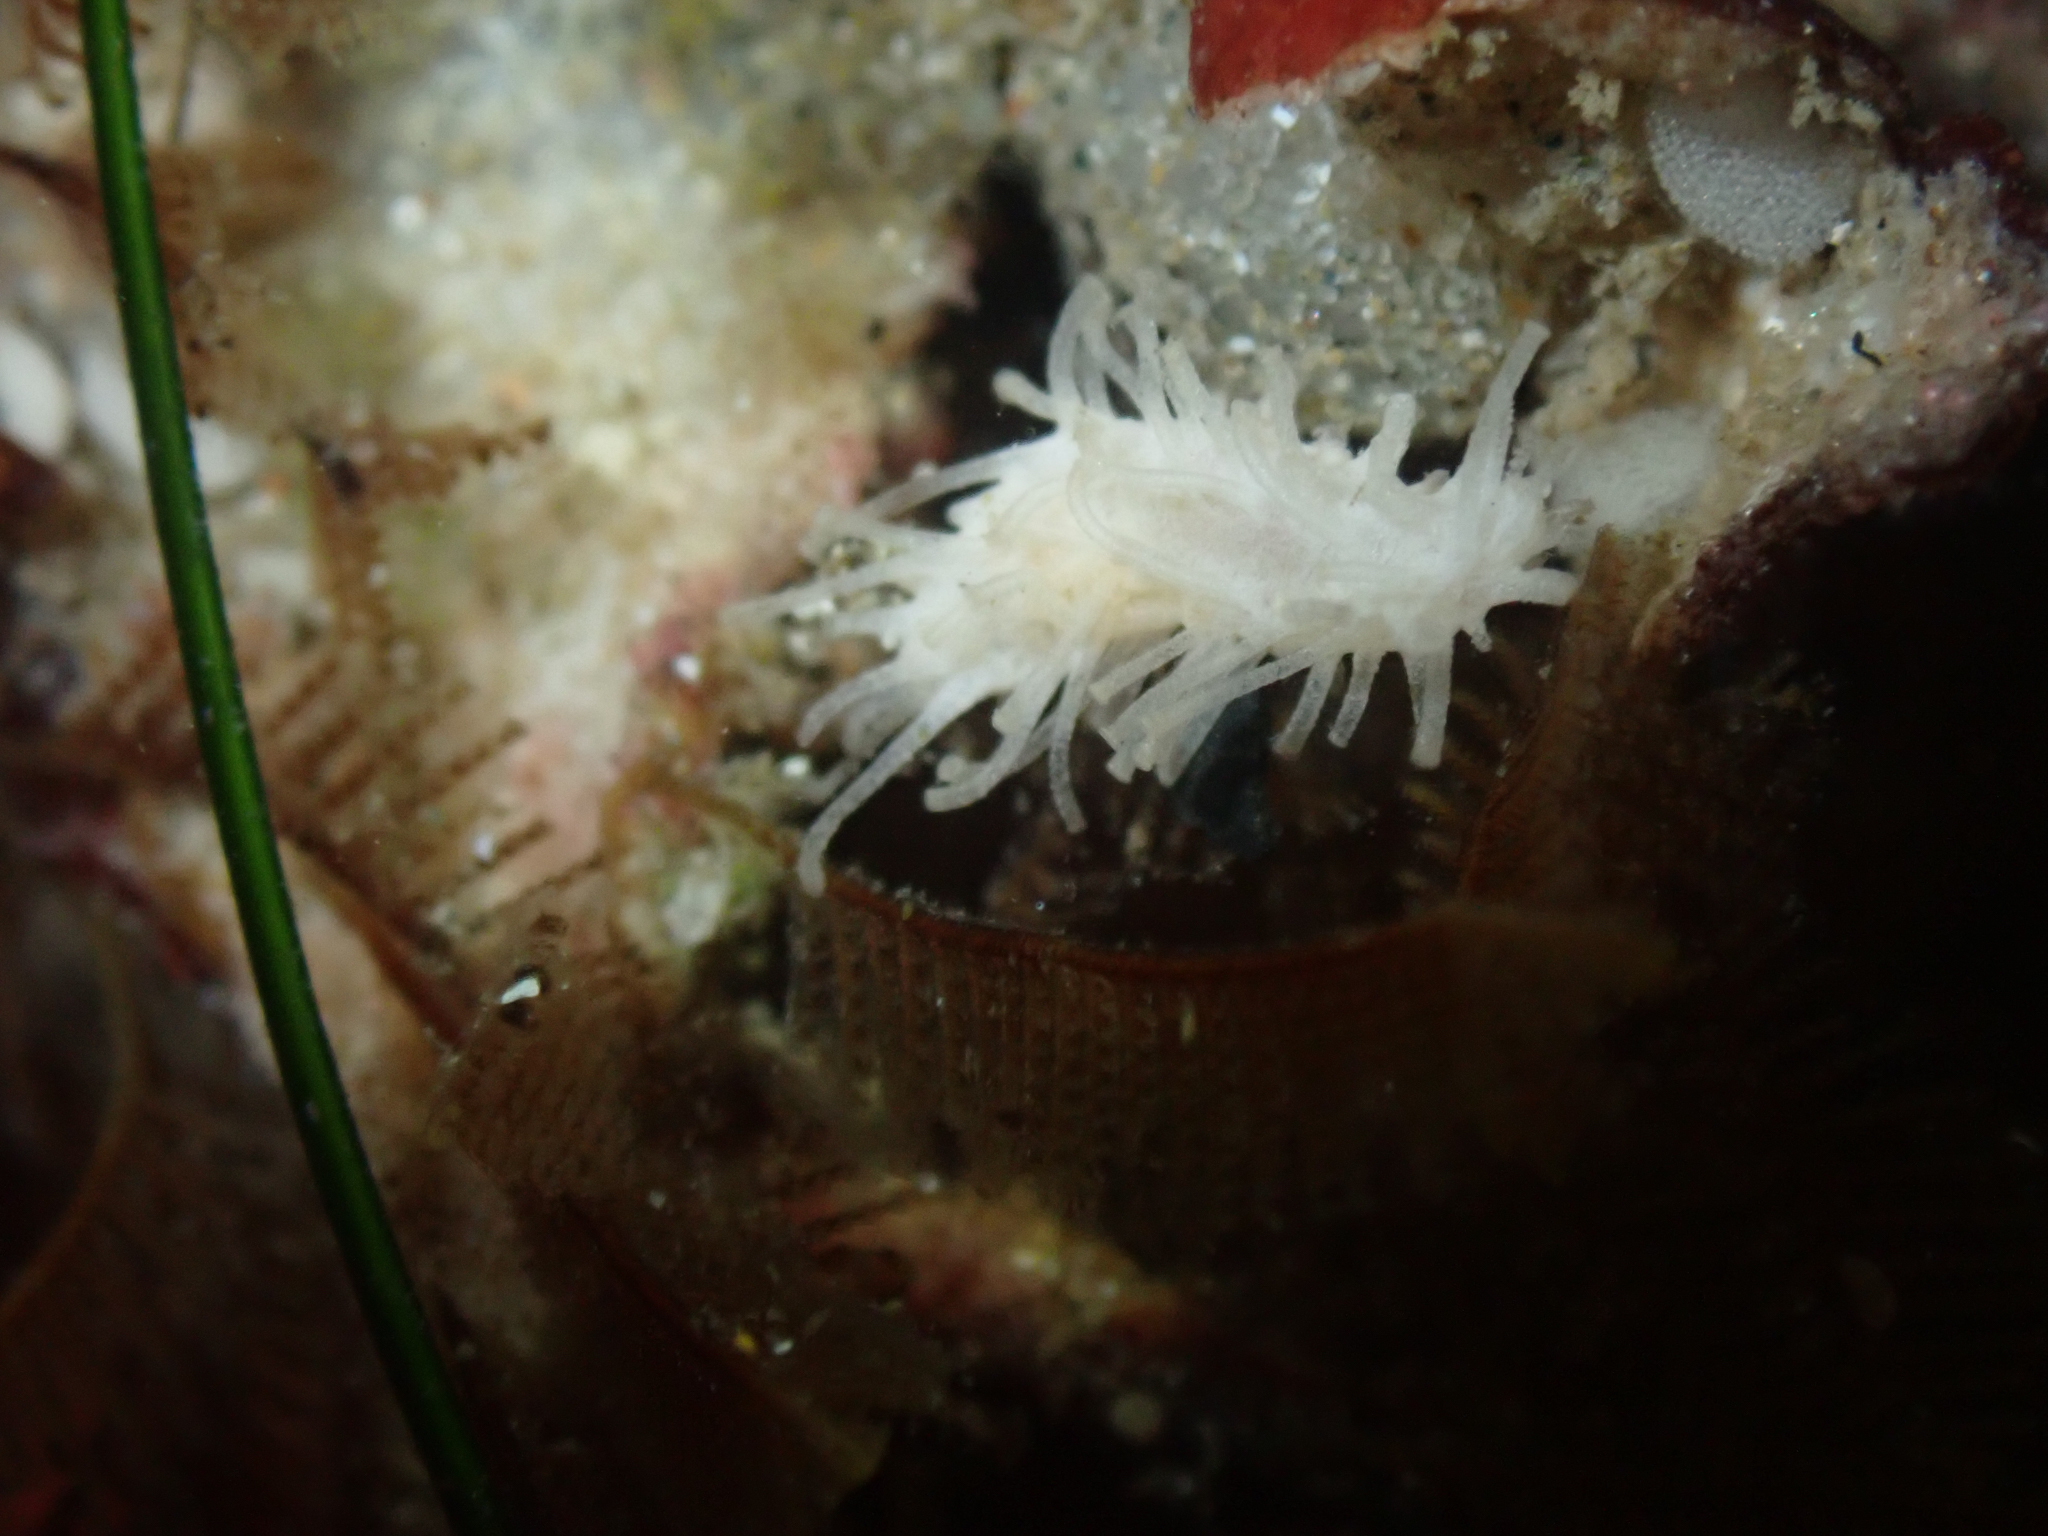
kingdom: Animalia
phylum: Echinodermata
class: Holothuroidea
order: Dendrochirotida
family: Sclerodactylidae
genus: Eupentacta
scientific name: Eupentacta quinquesemita
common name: Pentamerous sea cucumber
